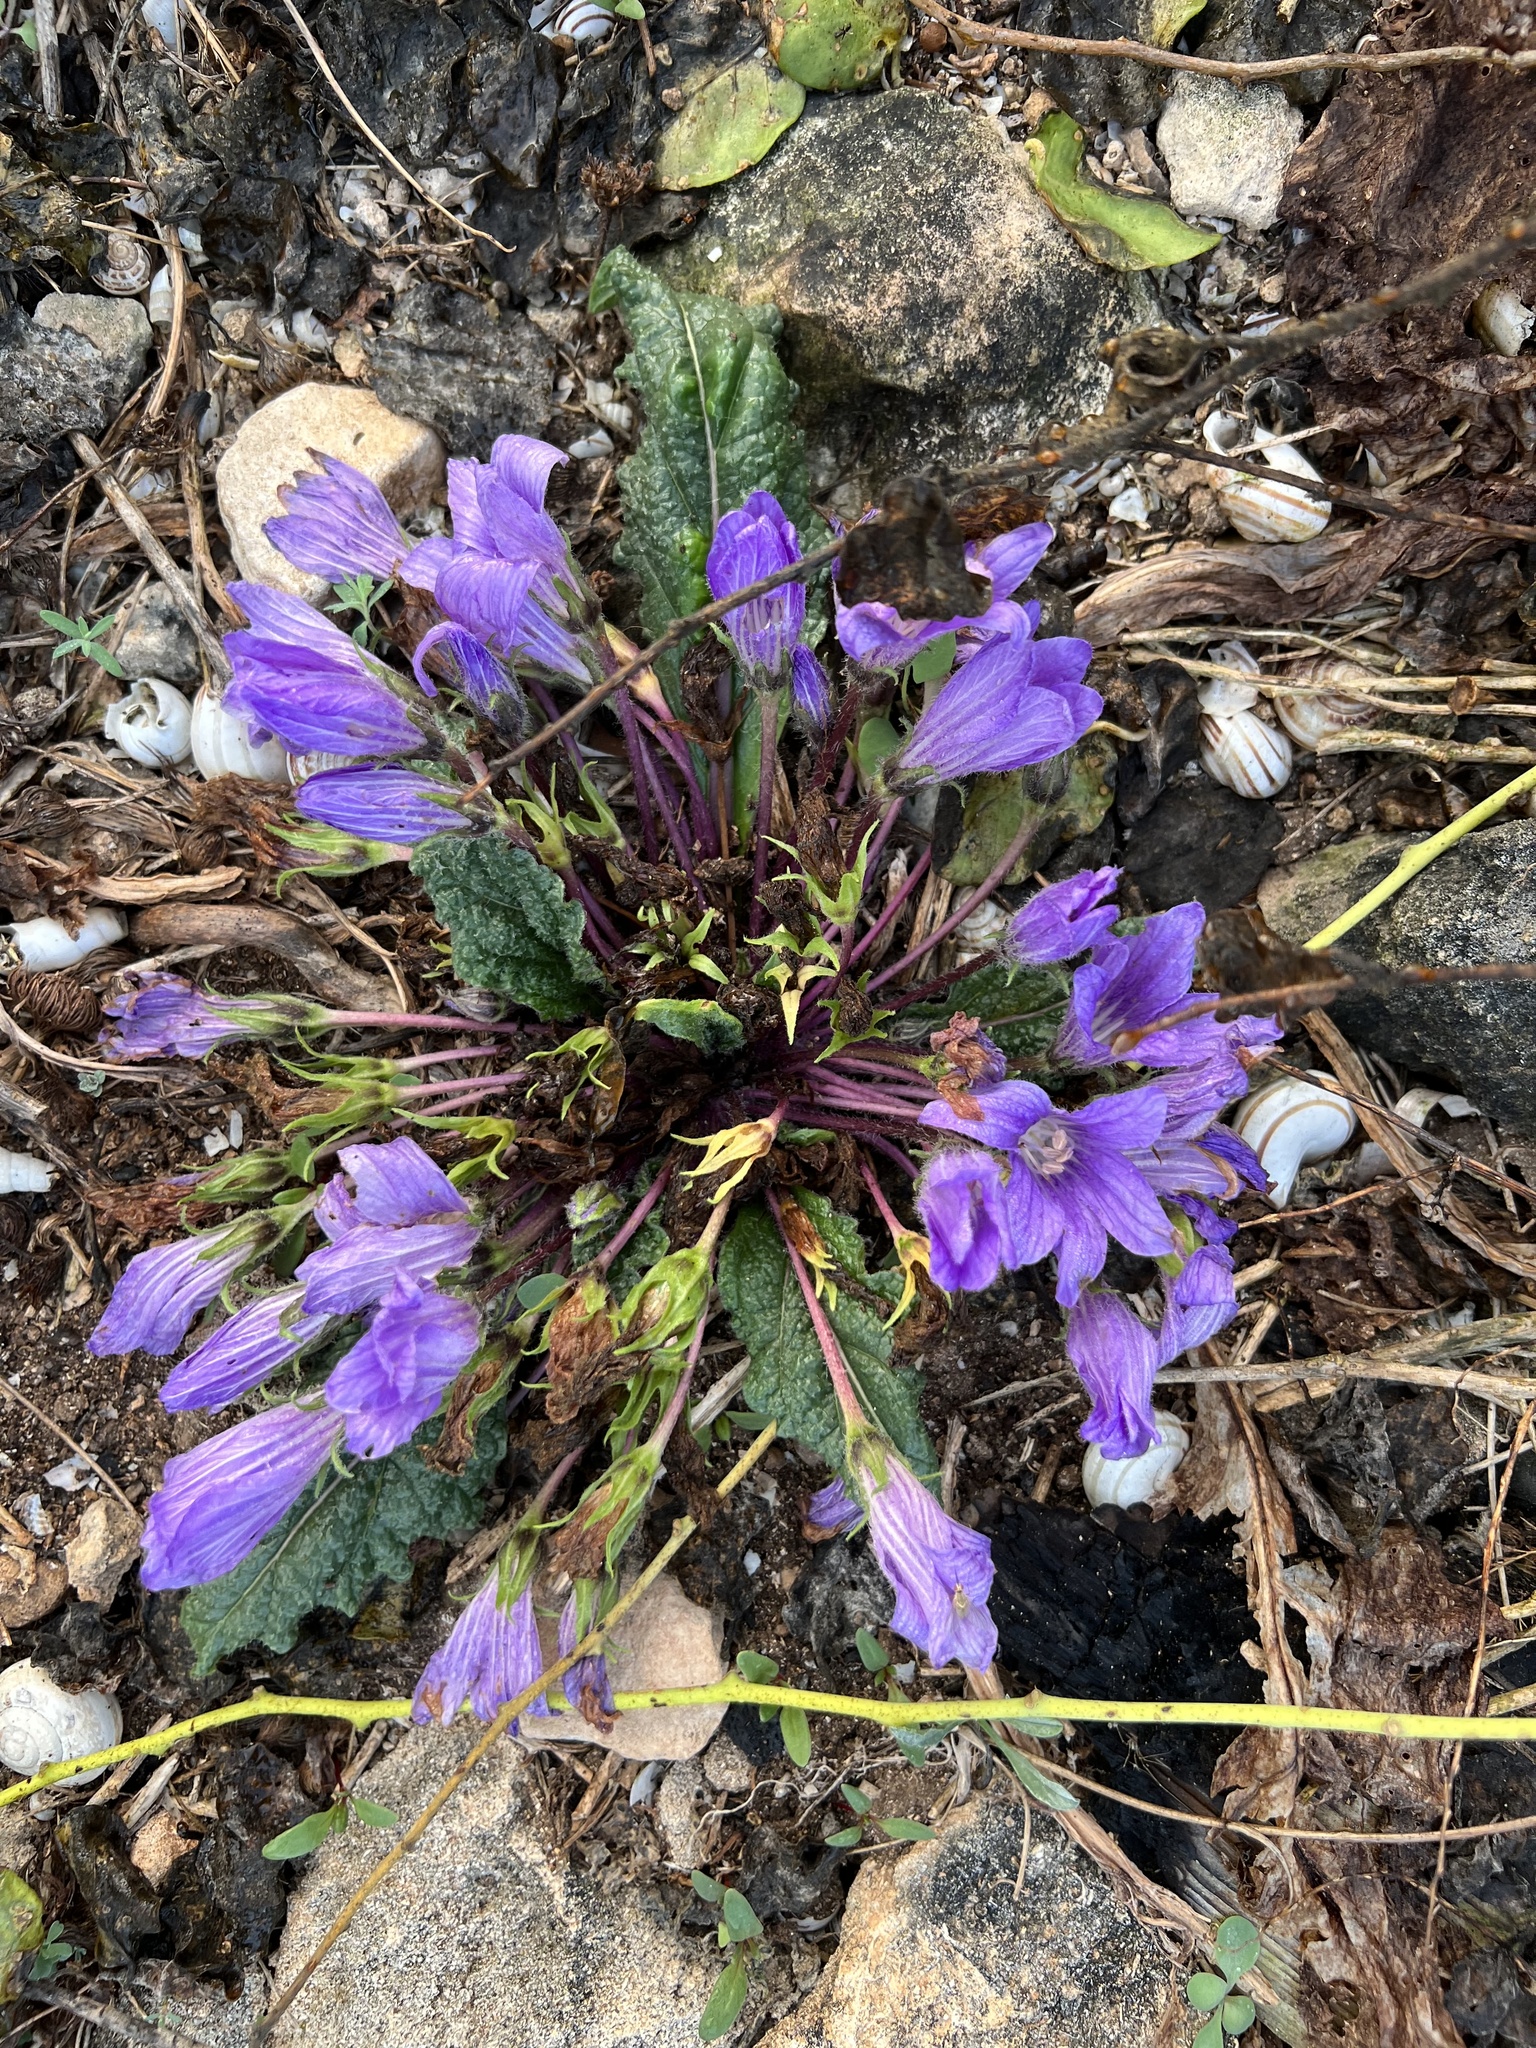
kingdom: Plantae
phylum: Tracheophyta
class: Magnoliopsida
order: Solanales
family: Solanaceae
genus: Mandragora
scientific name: Mandragora officinarum
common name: Mandrake
